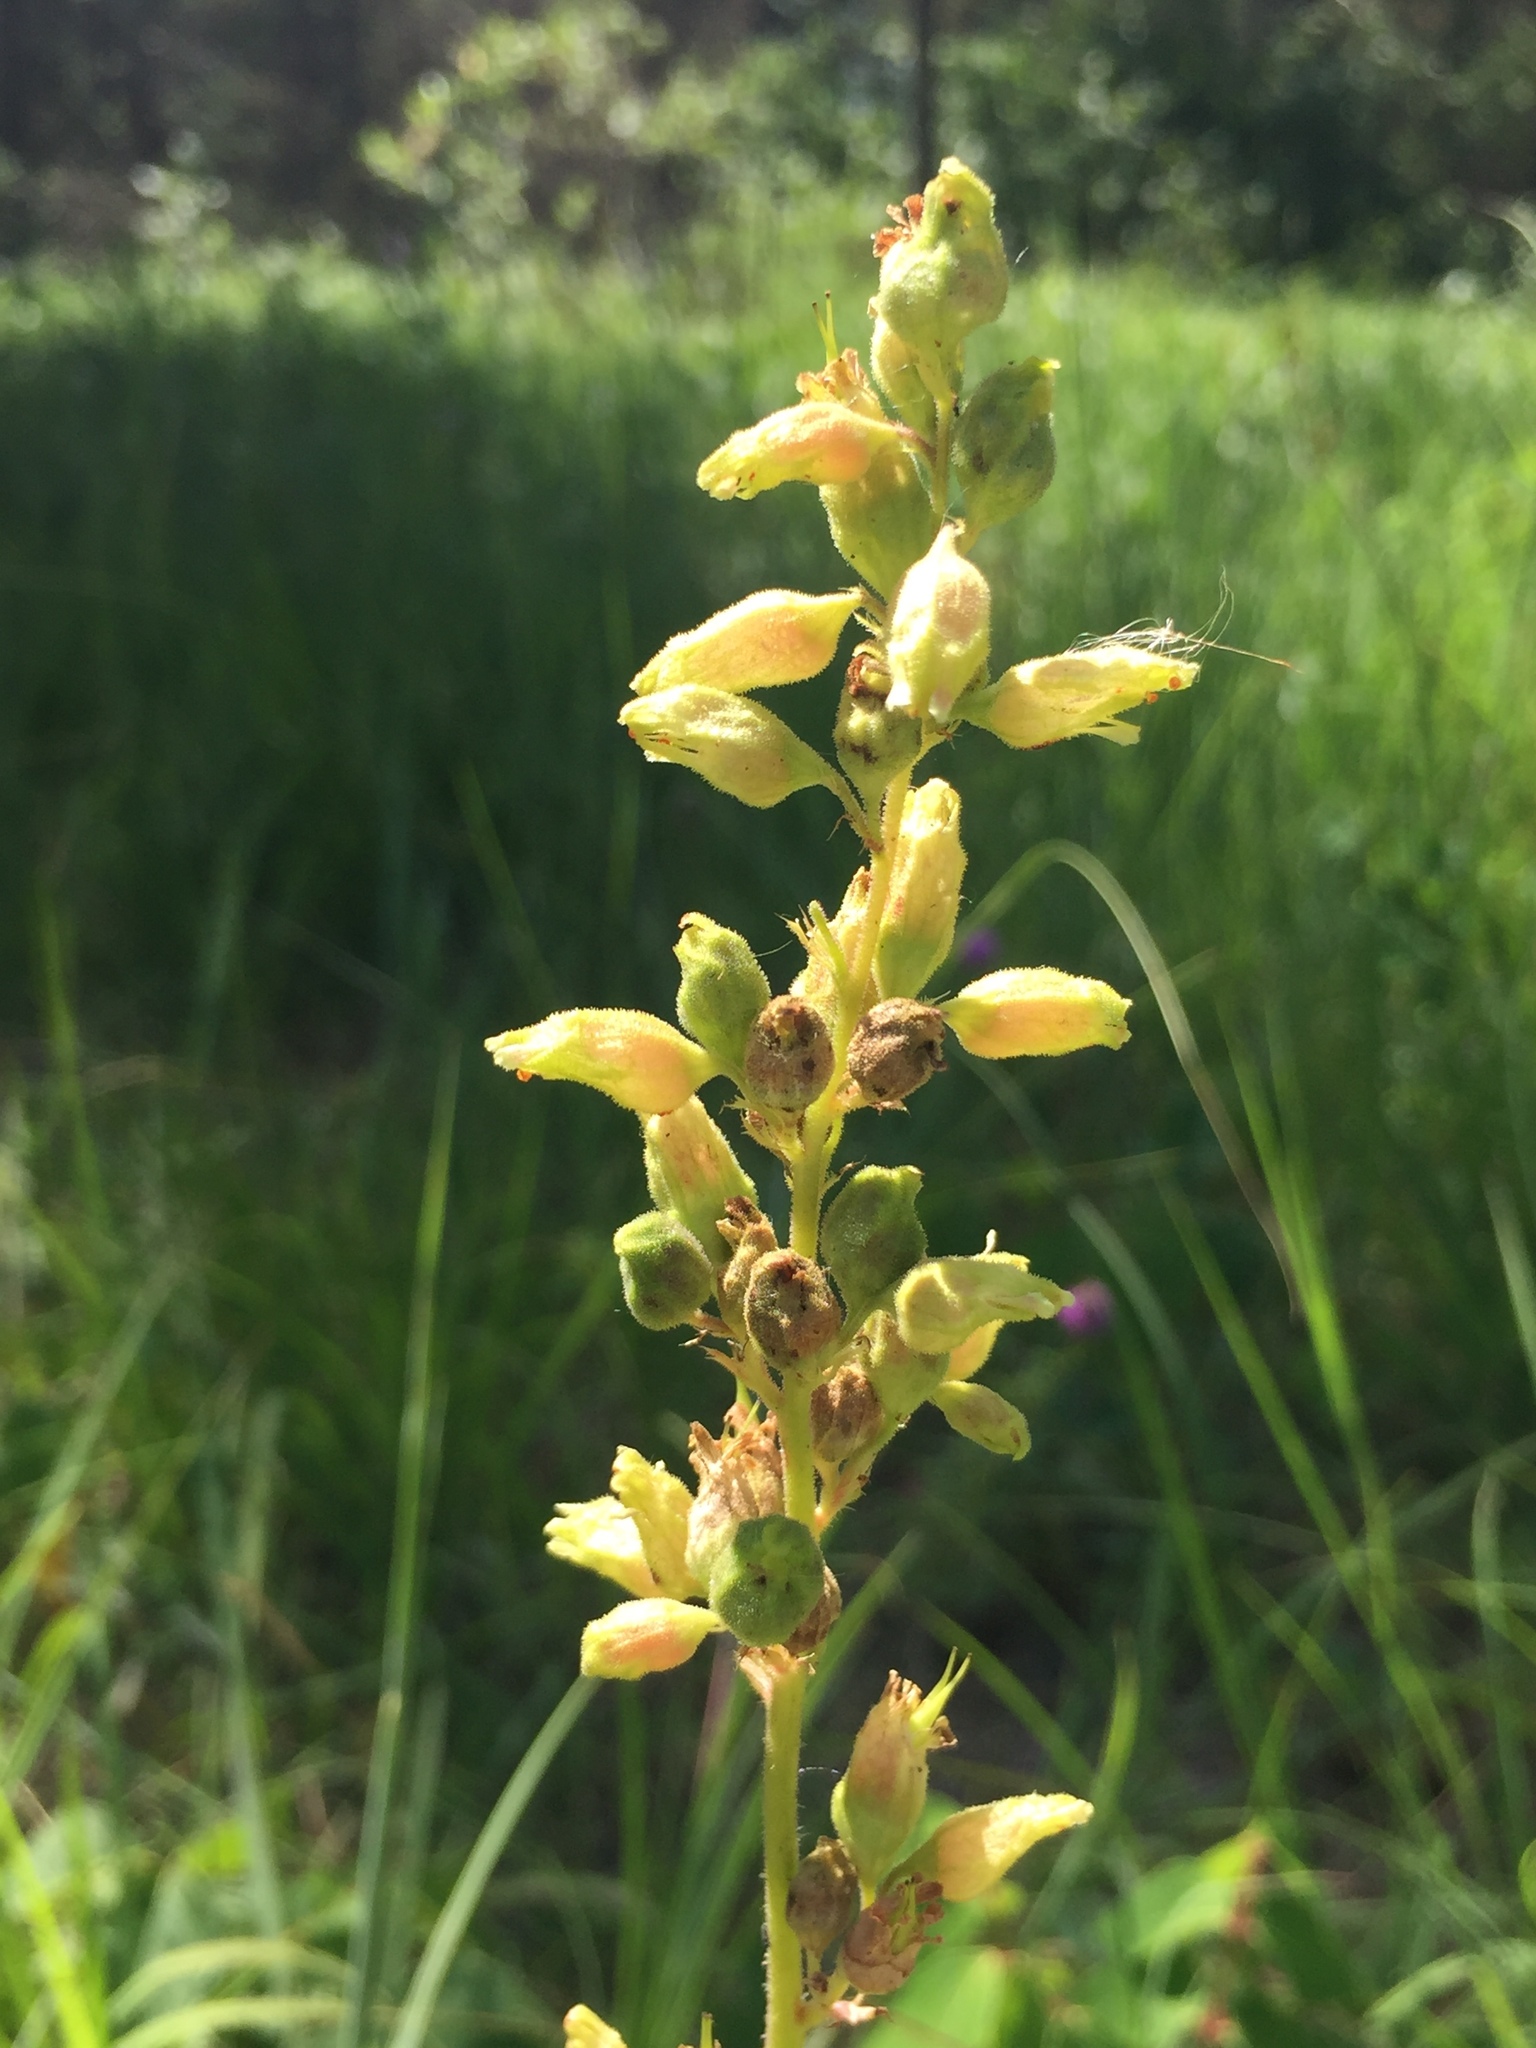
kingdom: Plantae
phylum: Tracheophyta
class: Magnoliopsida
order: Saxifragales
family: Saxifragaceae
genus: Heuchera
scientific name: Heuchera richardsonii
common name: Richardson's alumroot
